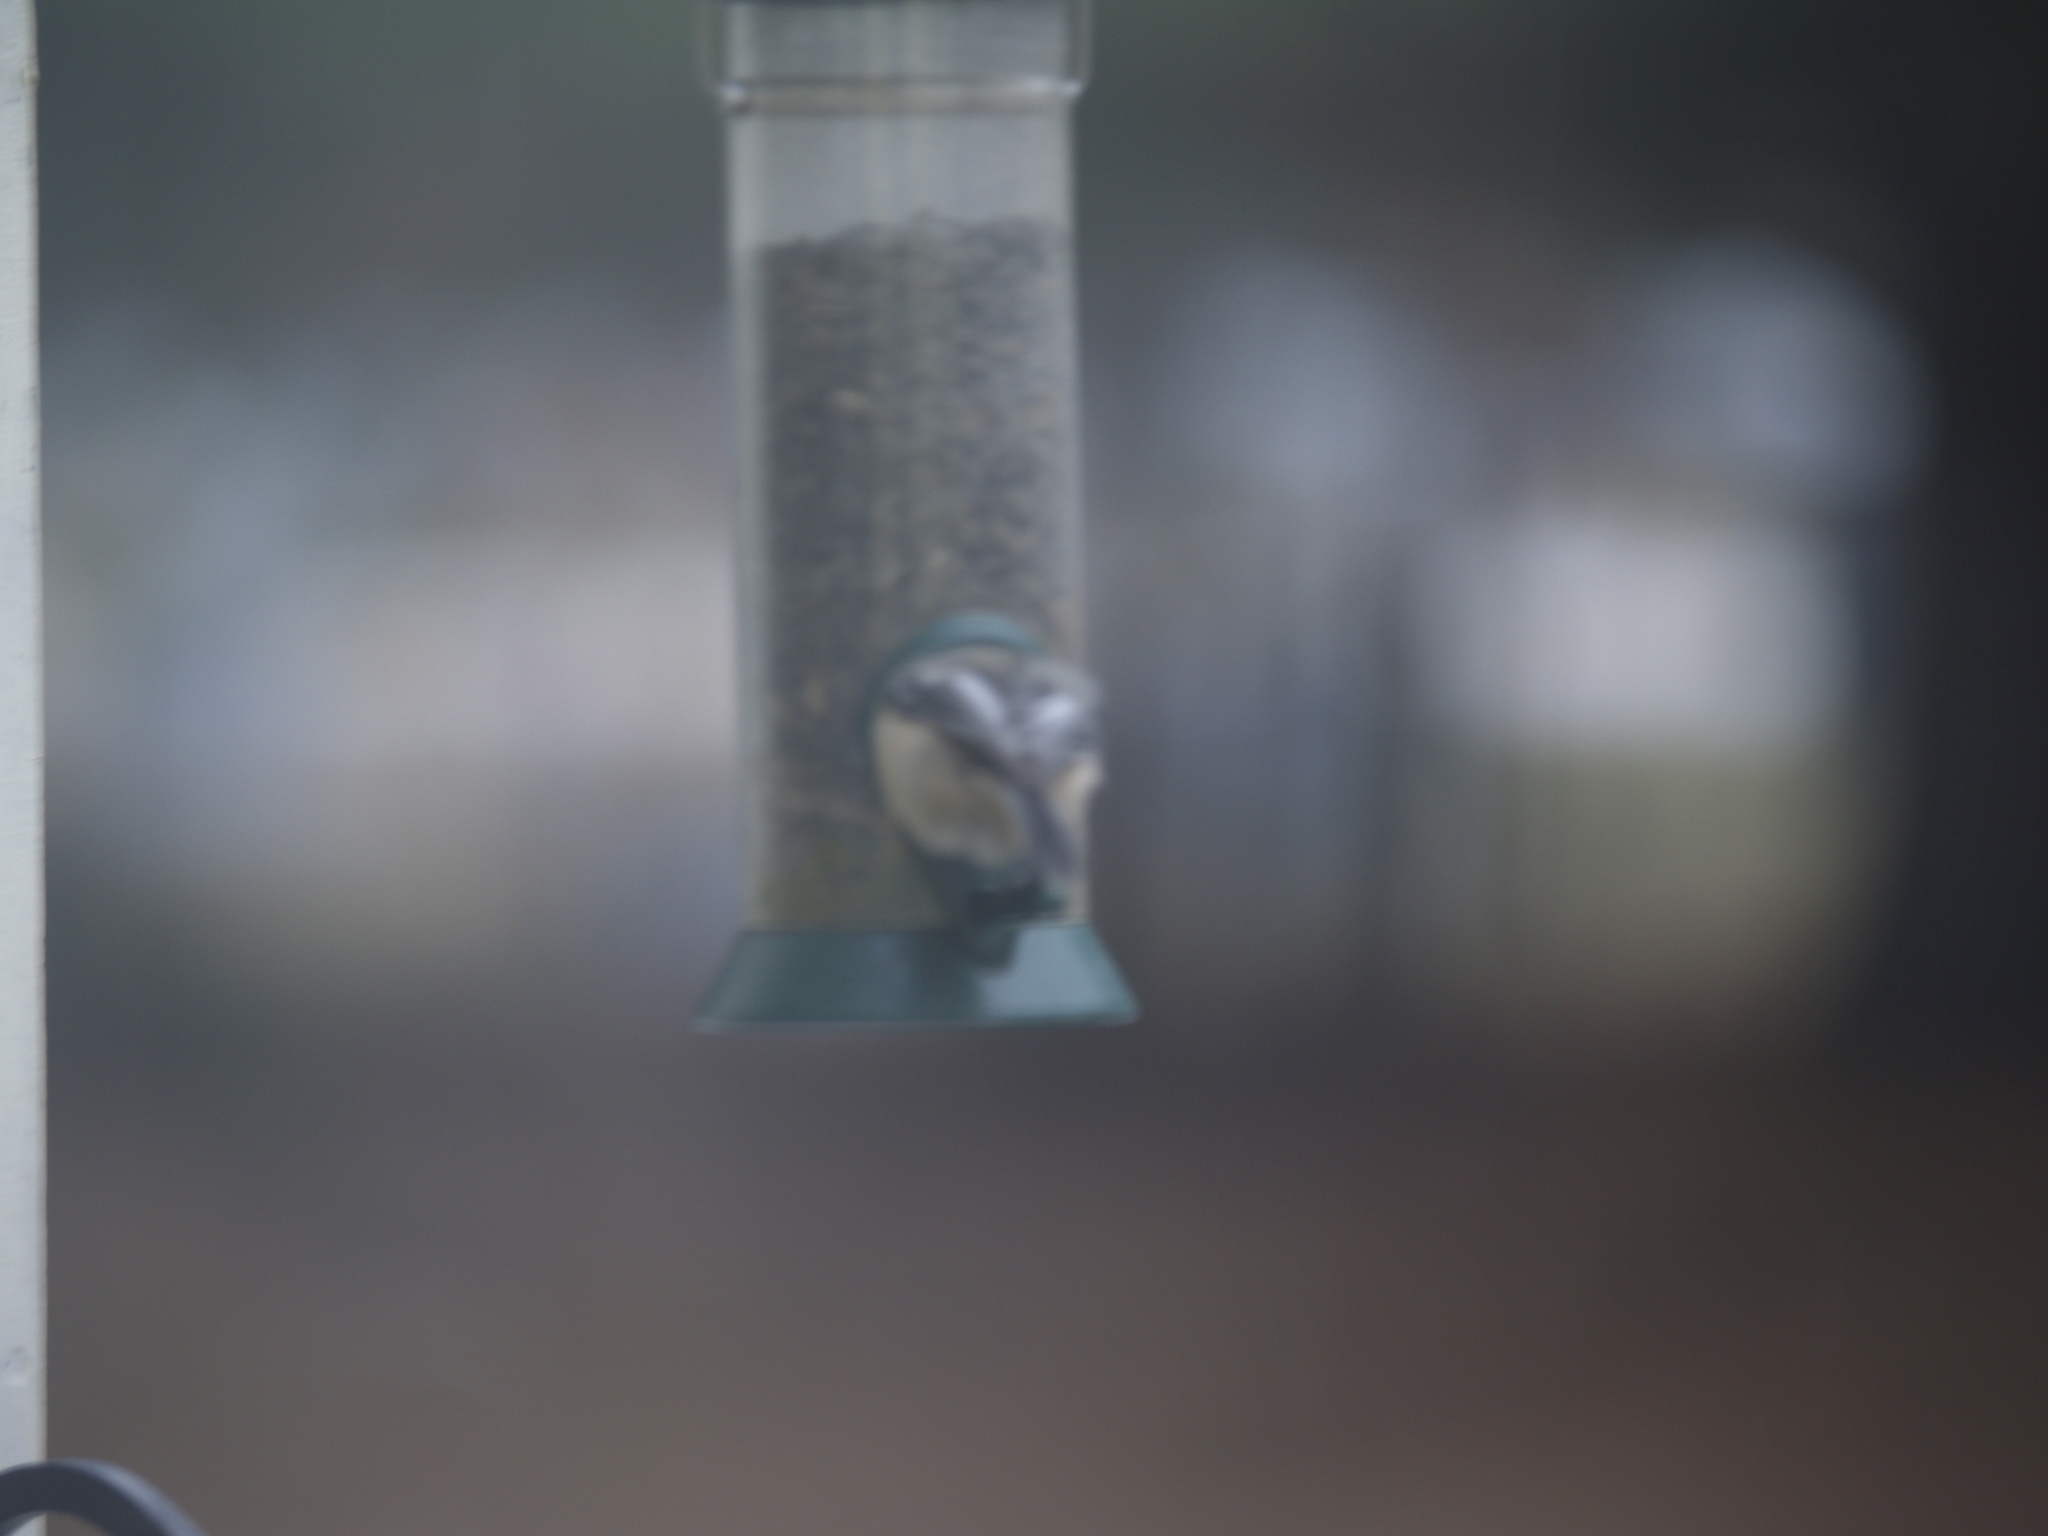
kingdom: Animalia
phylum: Chordata
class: Aves
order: Passeriformes
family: Paridae
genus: Poecile
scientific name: Poecile atricapillus
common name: Black-capped chickadee
